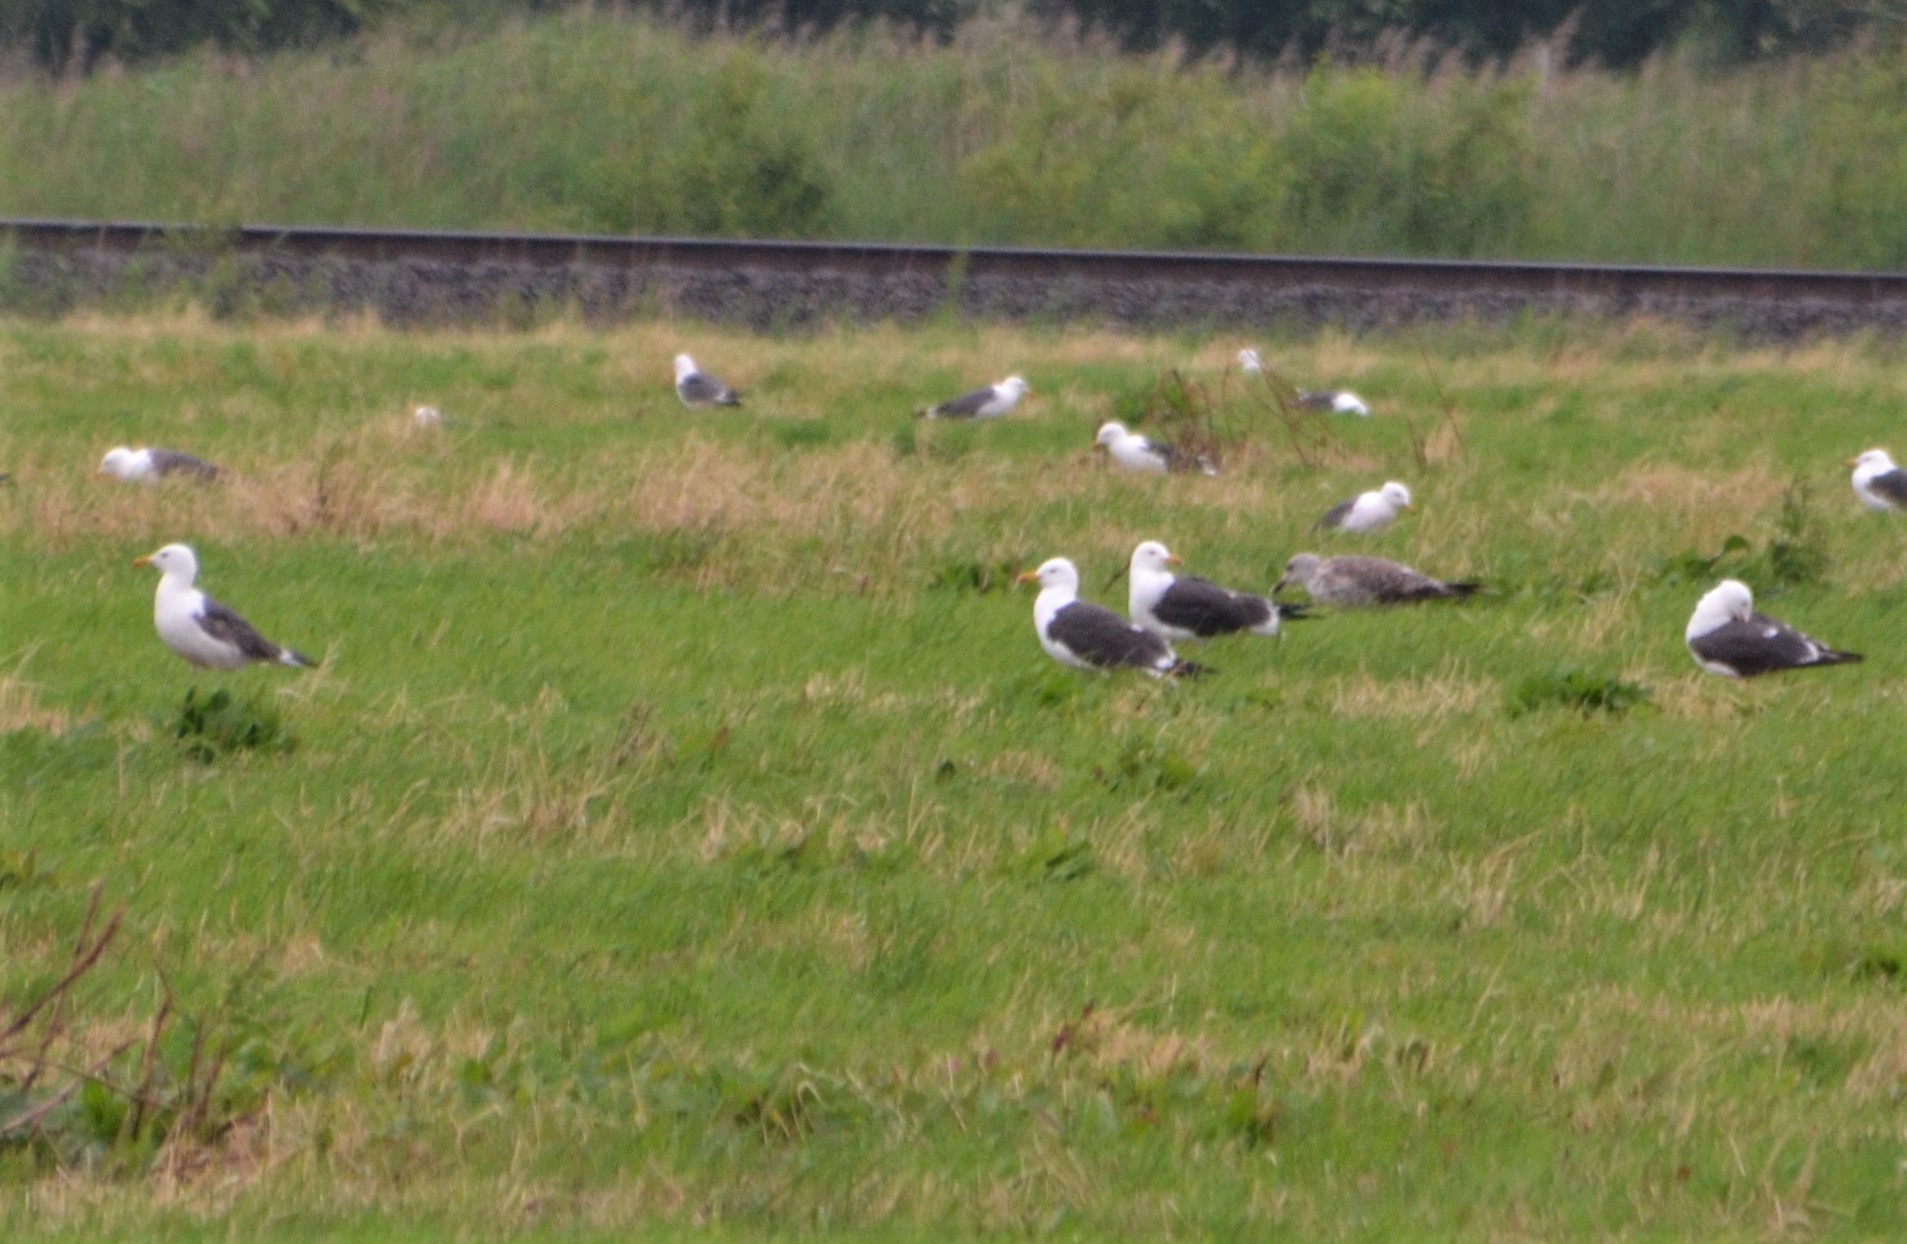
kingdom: Animalia
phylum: Chordata
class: Aves
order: Charadriiformes
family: Laridae
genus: Larus
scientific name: Larus fuscus
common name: Lesser black-backed gull
